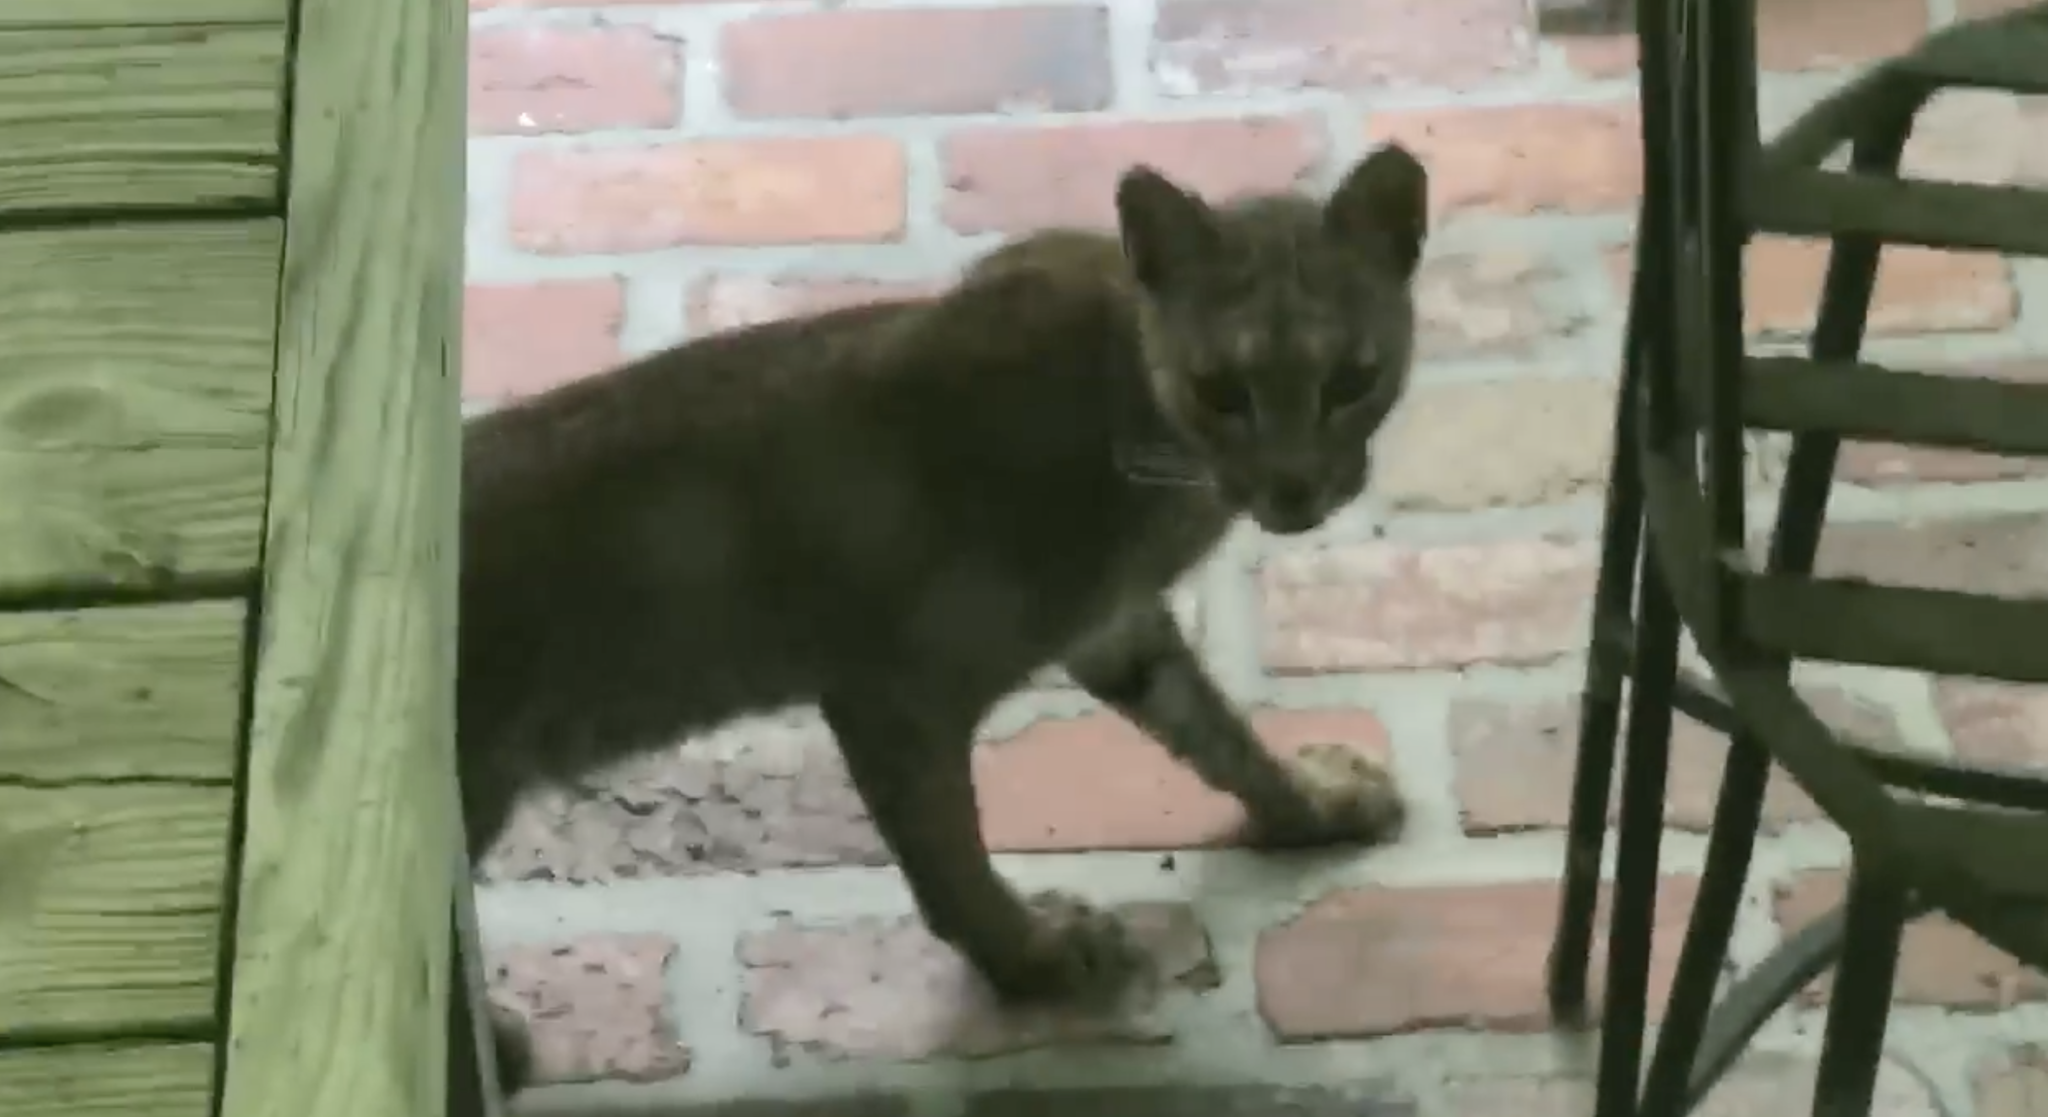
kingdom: Animalia
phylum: Chordata
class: Mammalia
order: Carnivora
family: Felidae
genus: Lynx
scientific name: Lynx rufus
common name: Bobcat
